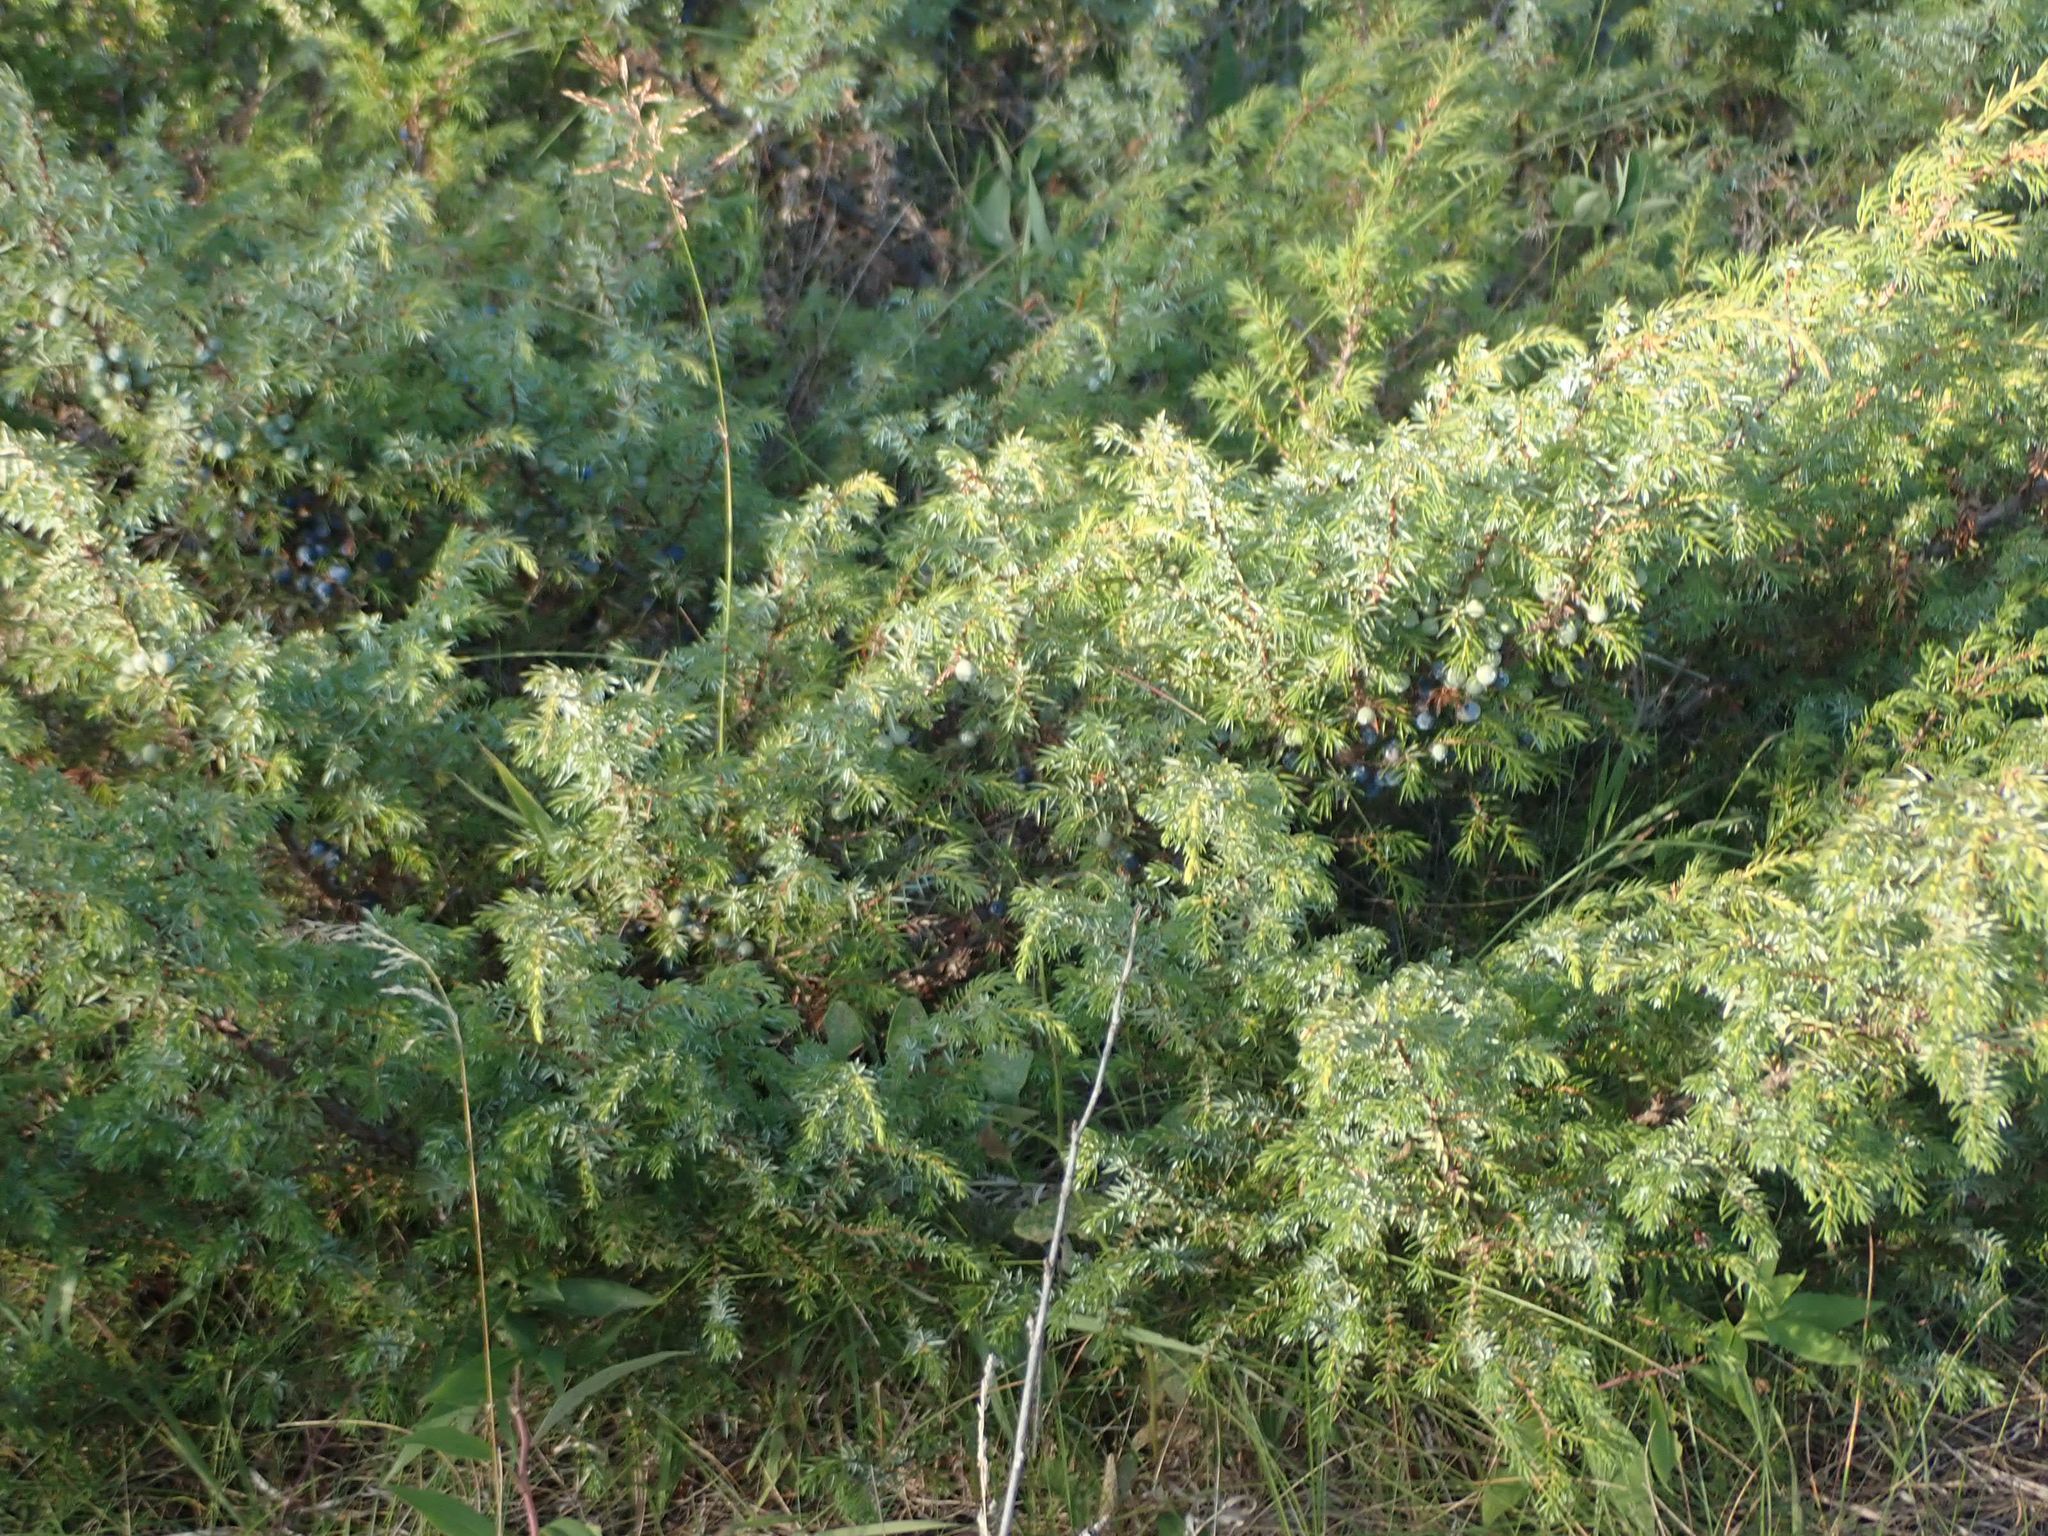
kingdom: Plantae
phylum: Tracheophyta
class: Pinopsida
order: Pinales
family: Cupressaceae
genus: Juniperus
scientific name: Juniperus communis
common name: Common juniper
